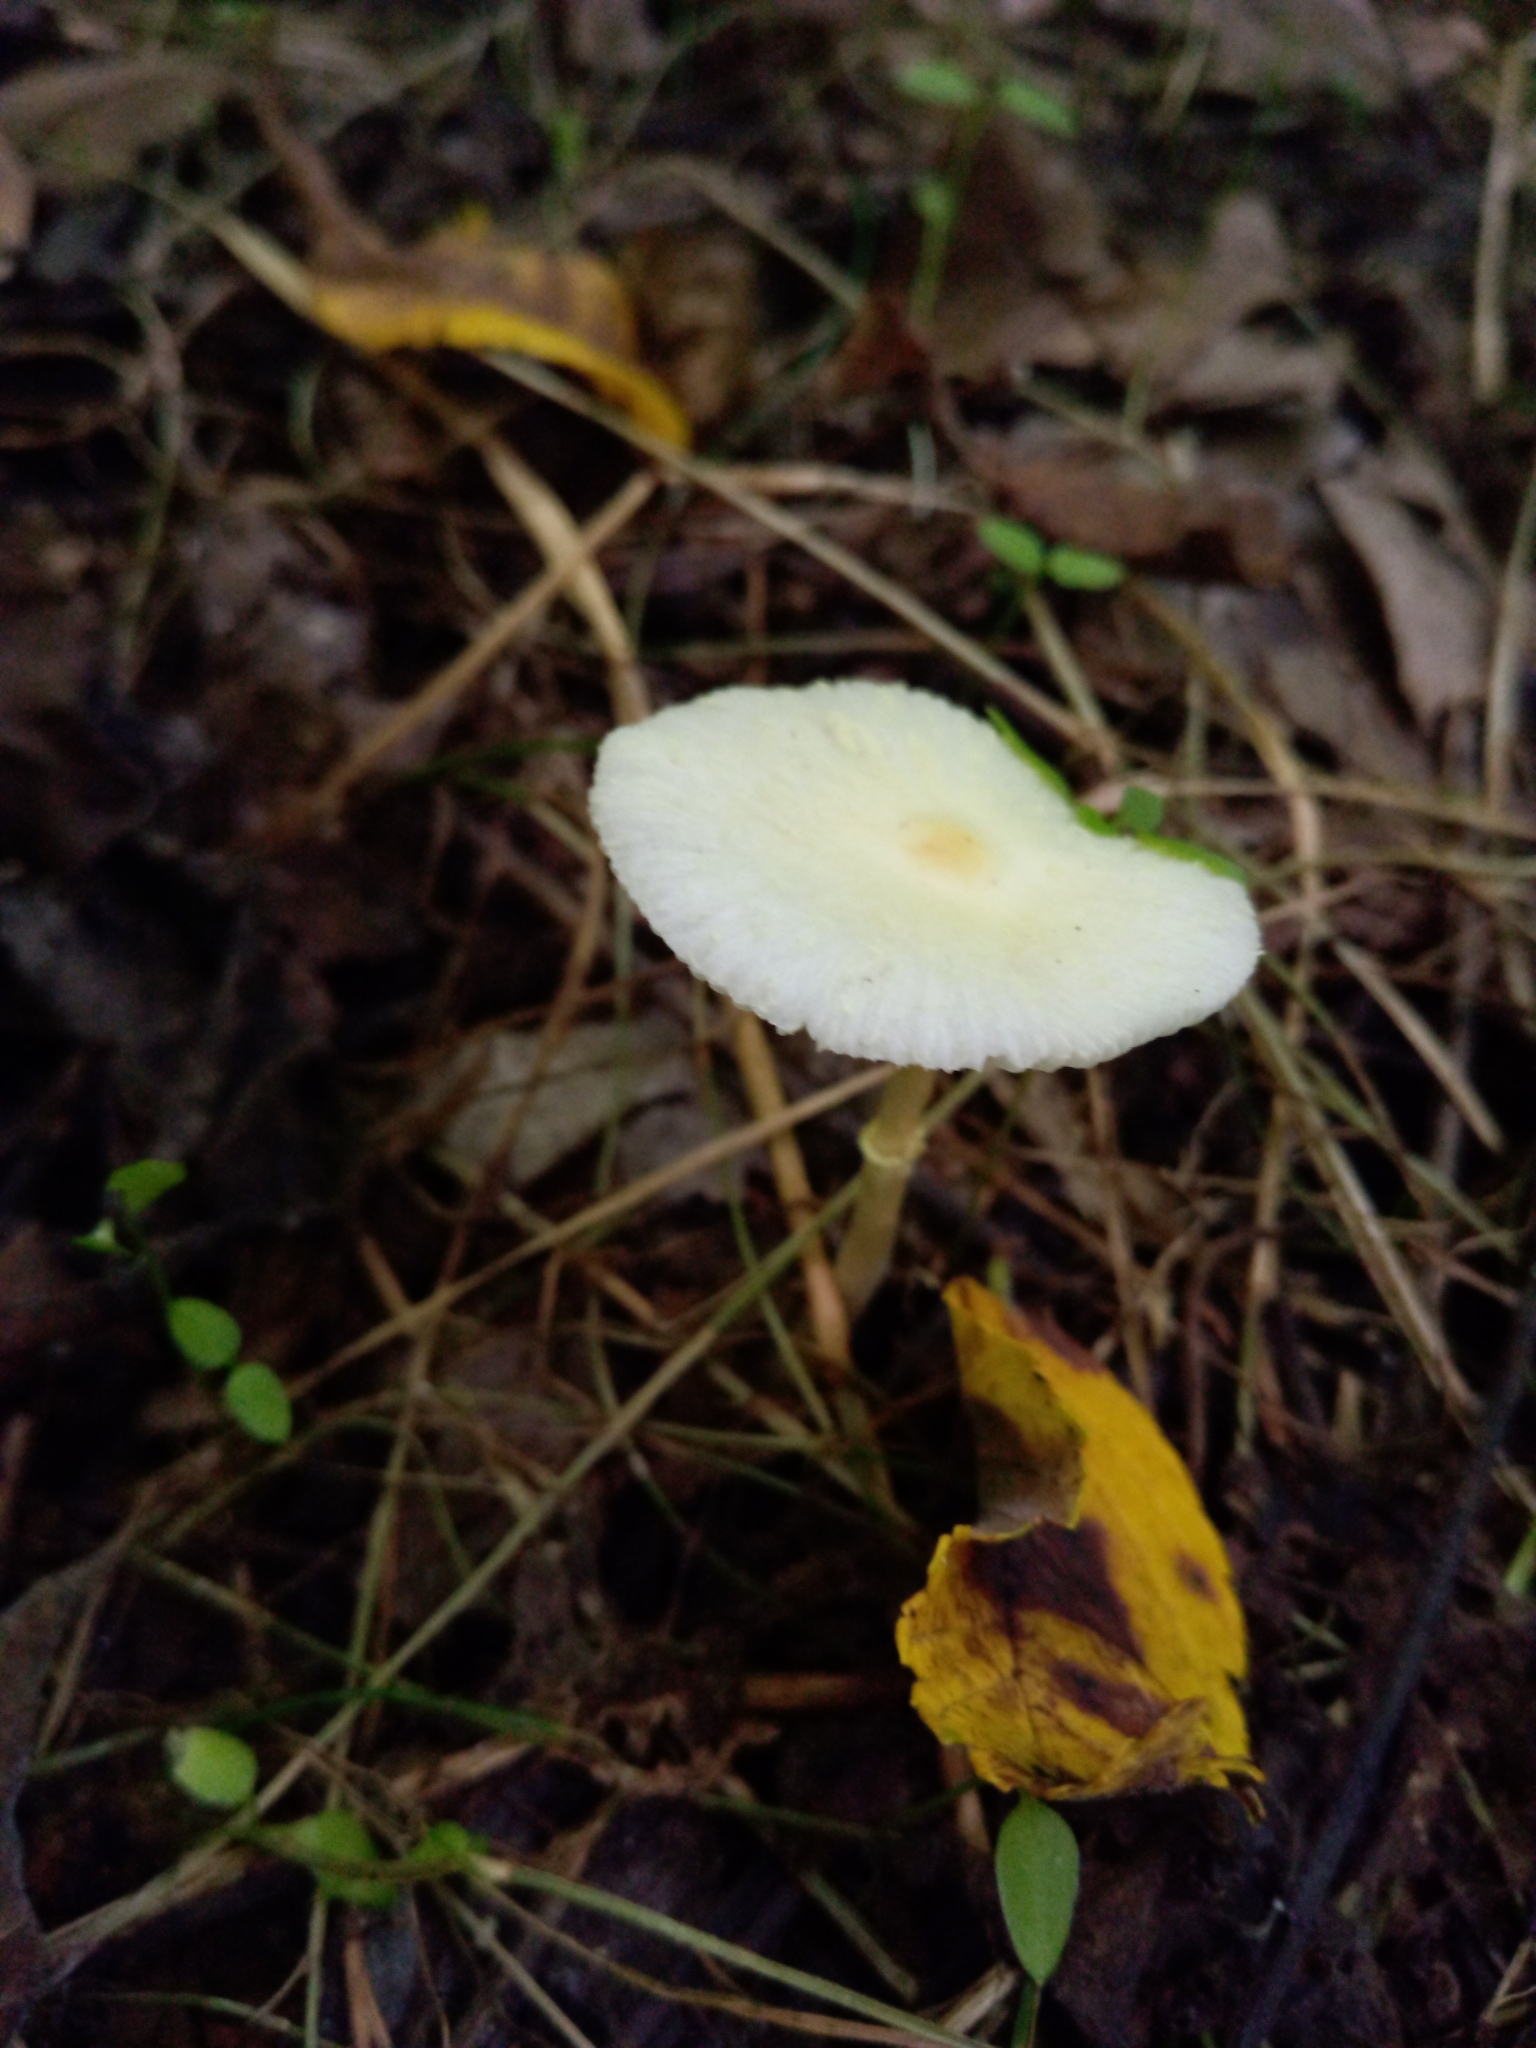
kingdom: Fungi
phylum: Basidiomycota
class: Agaricomycetes
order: Agaricales
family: Agaricaceae
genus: Leucocoprinus
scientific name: Leucocoprinus flavescens
